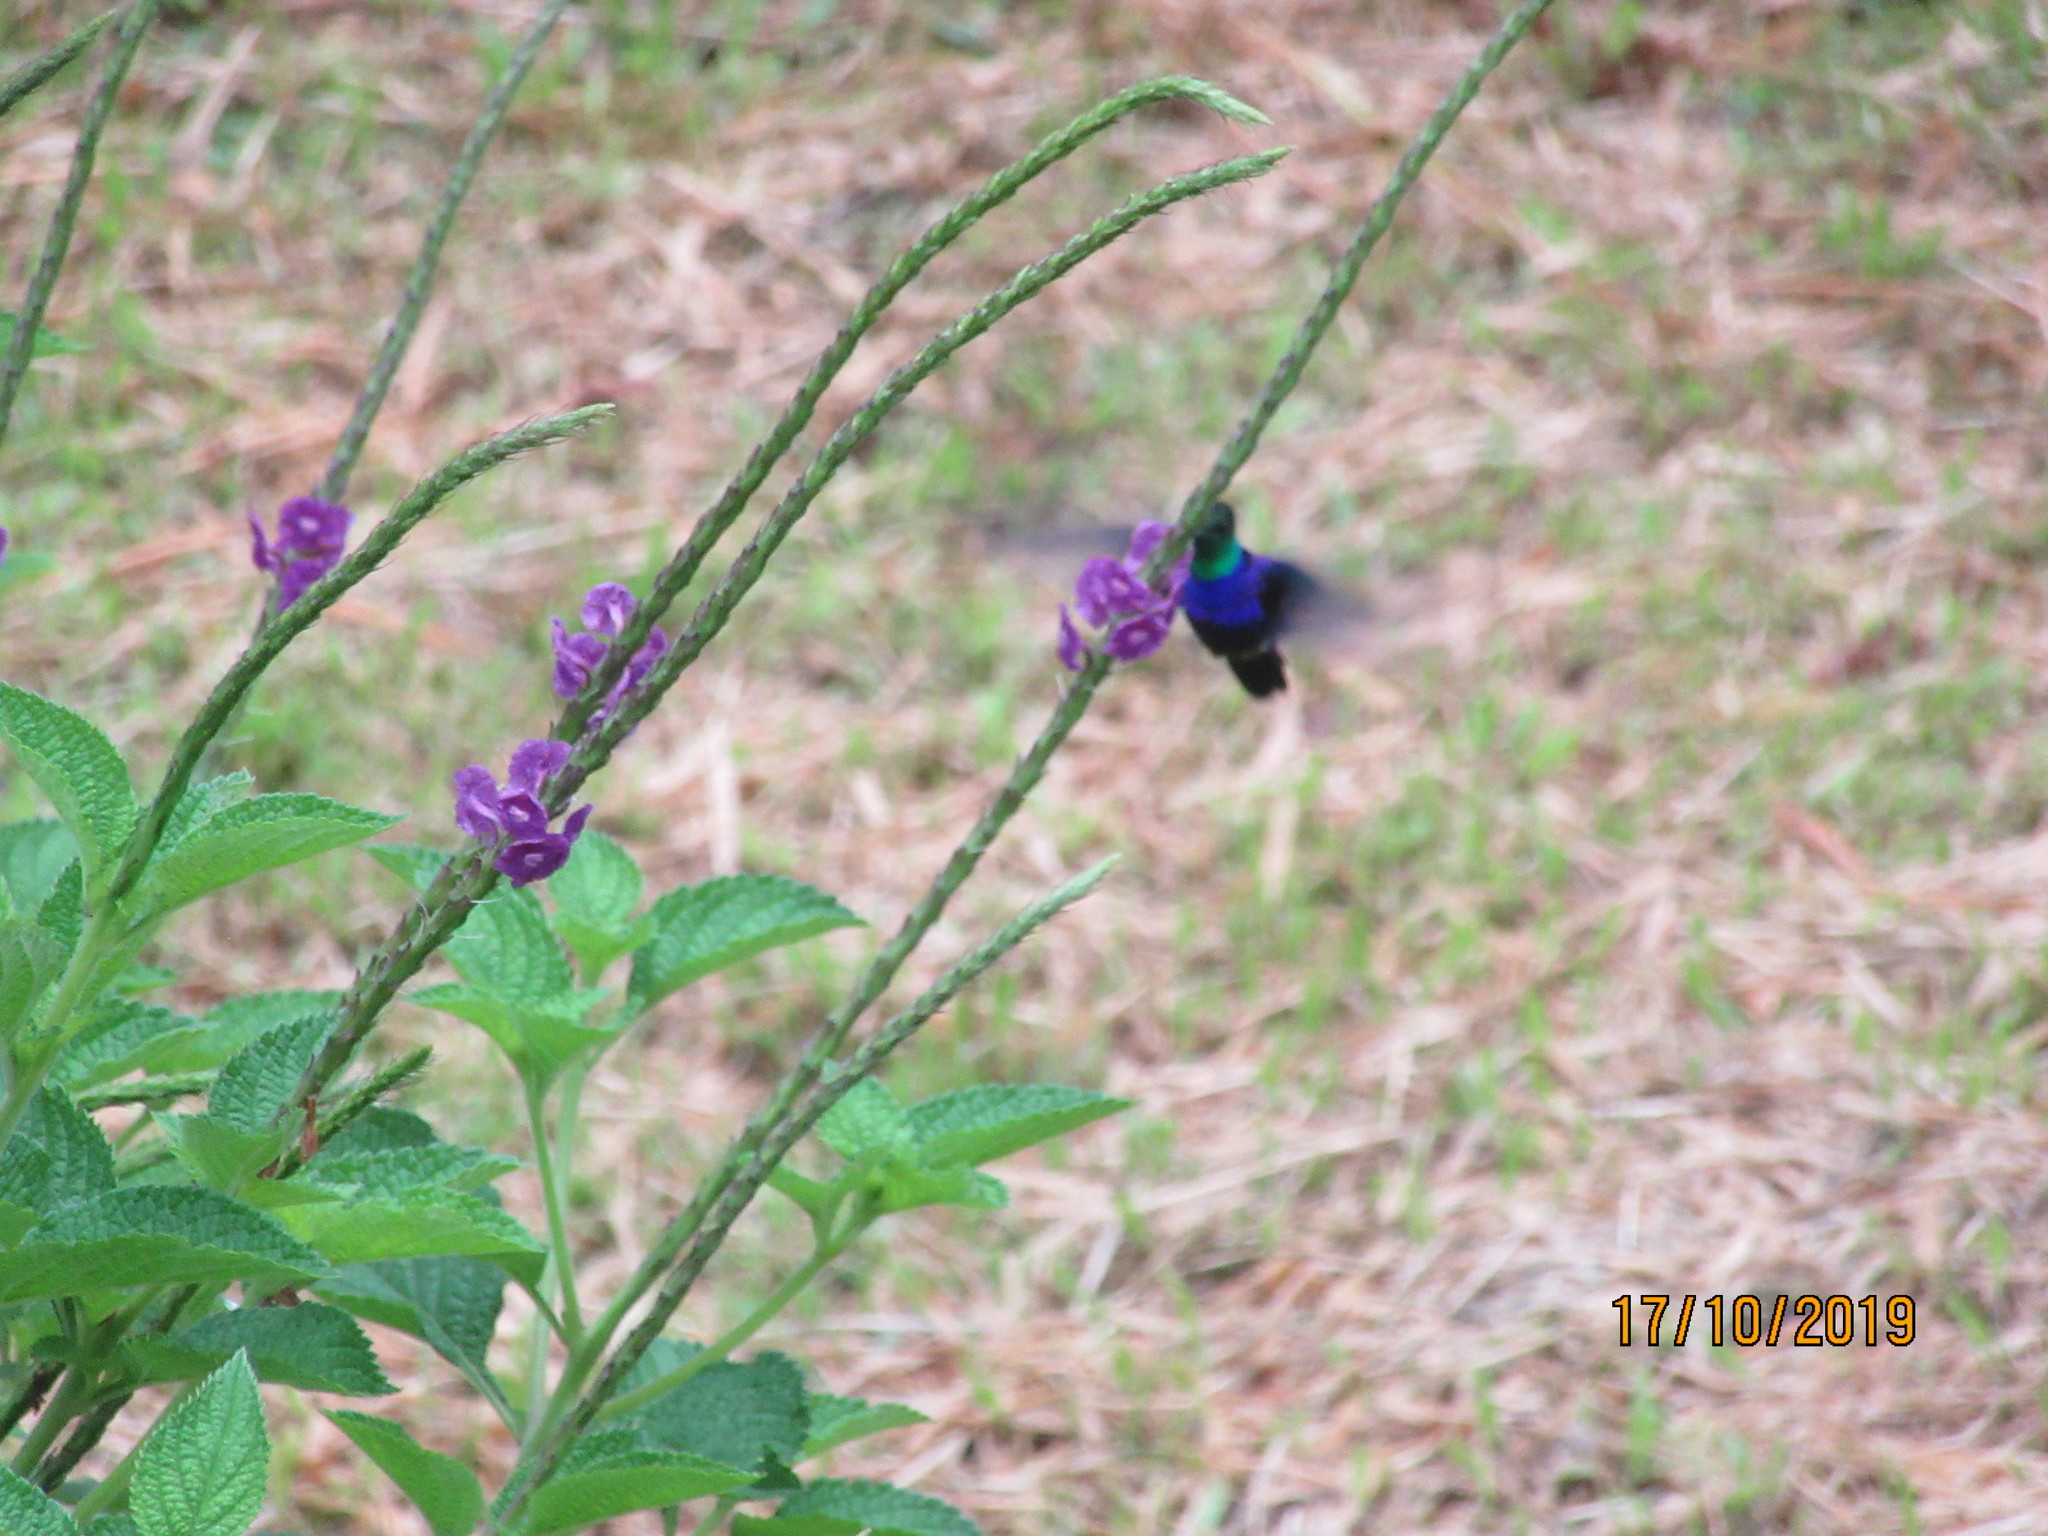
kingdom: Animalia
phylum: Chordata
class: Aves
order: Apodiformes
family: Trochilidae
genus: Thalurania
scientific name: Thalurania furcata
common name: Fork-tailed woodnymph
